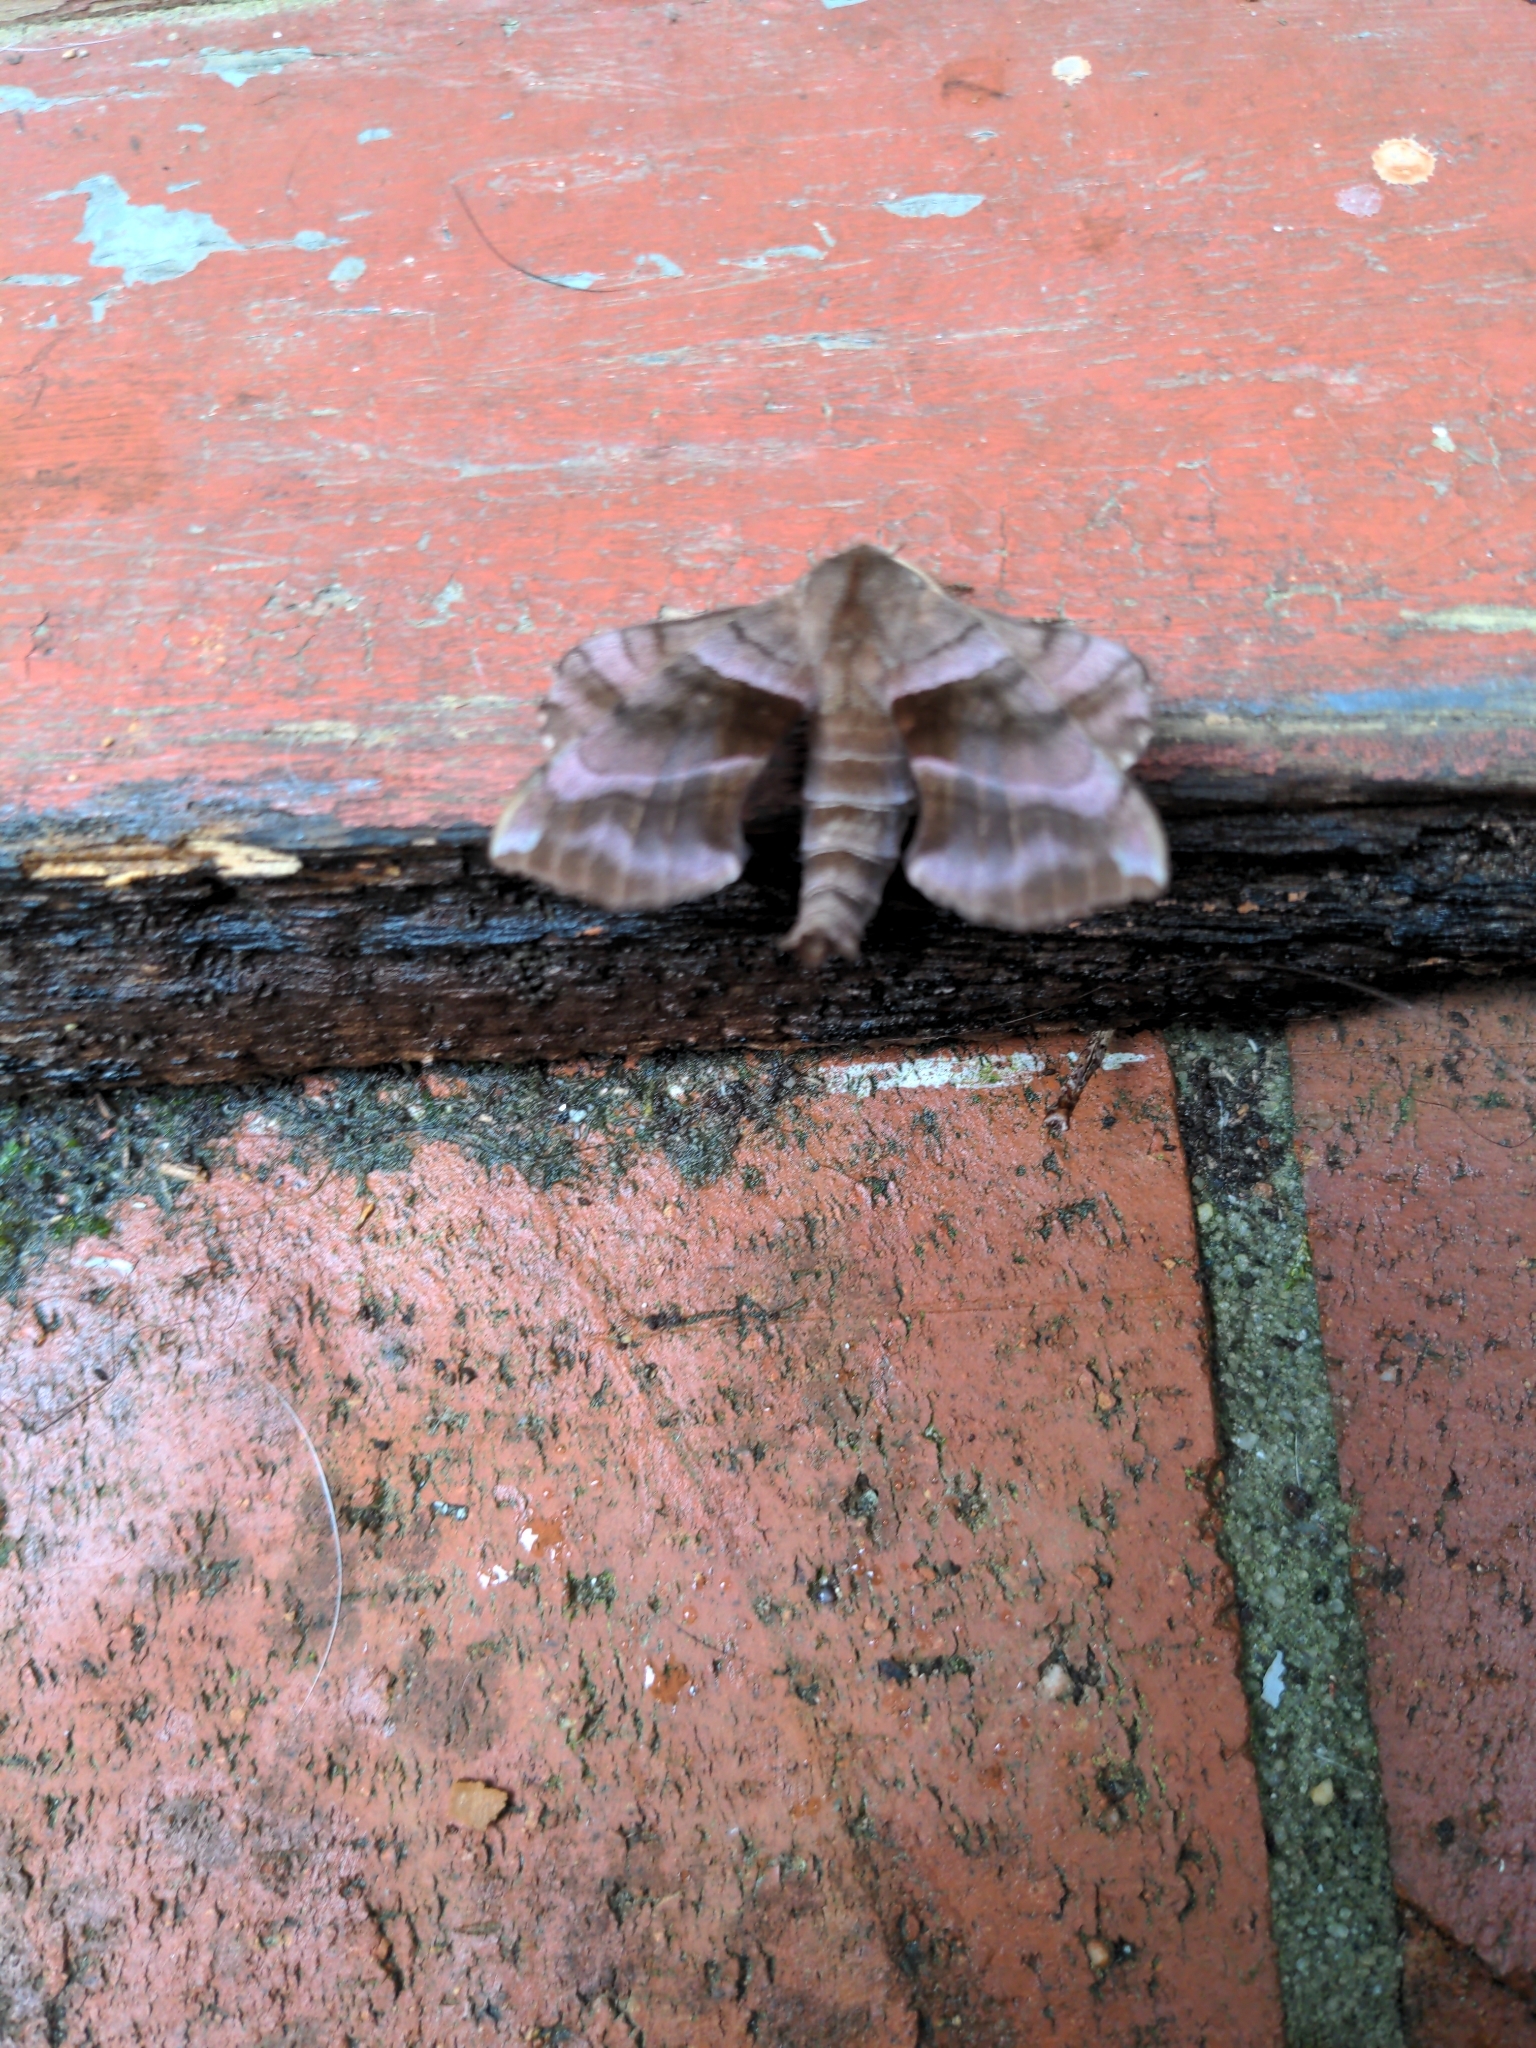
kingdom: Animalia
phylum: Arthropoda
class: Insecta
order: Lepidoptera
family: Sphingidae
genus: Amorpha
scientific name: Amorpha juglandis
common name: Walnut sphinx
